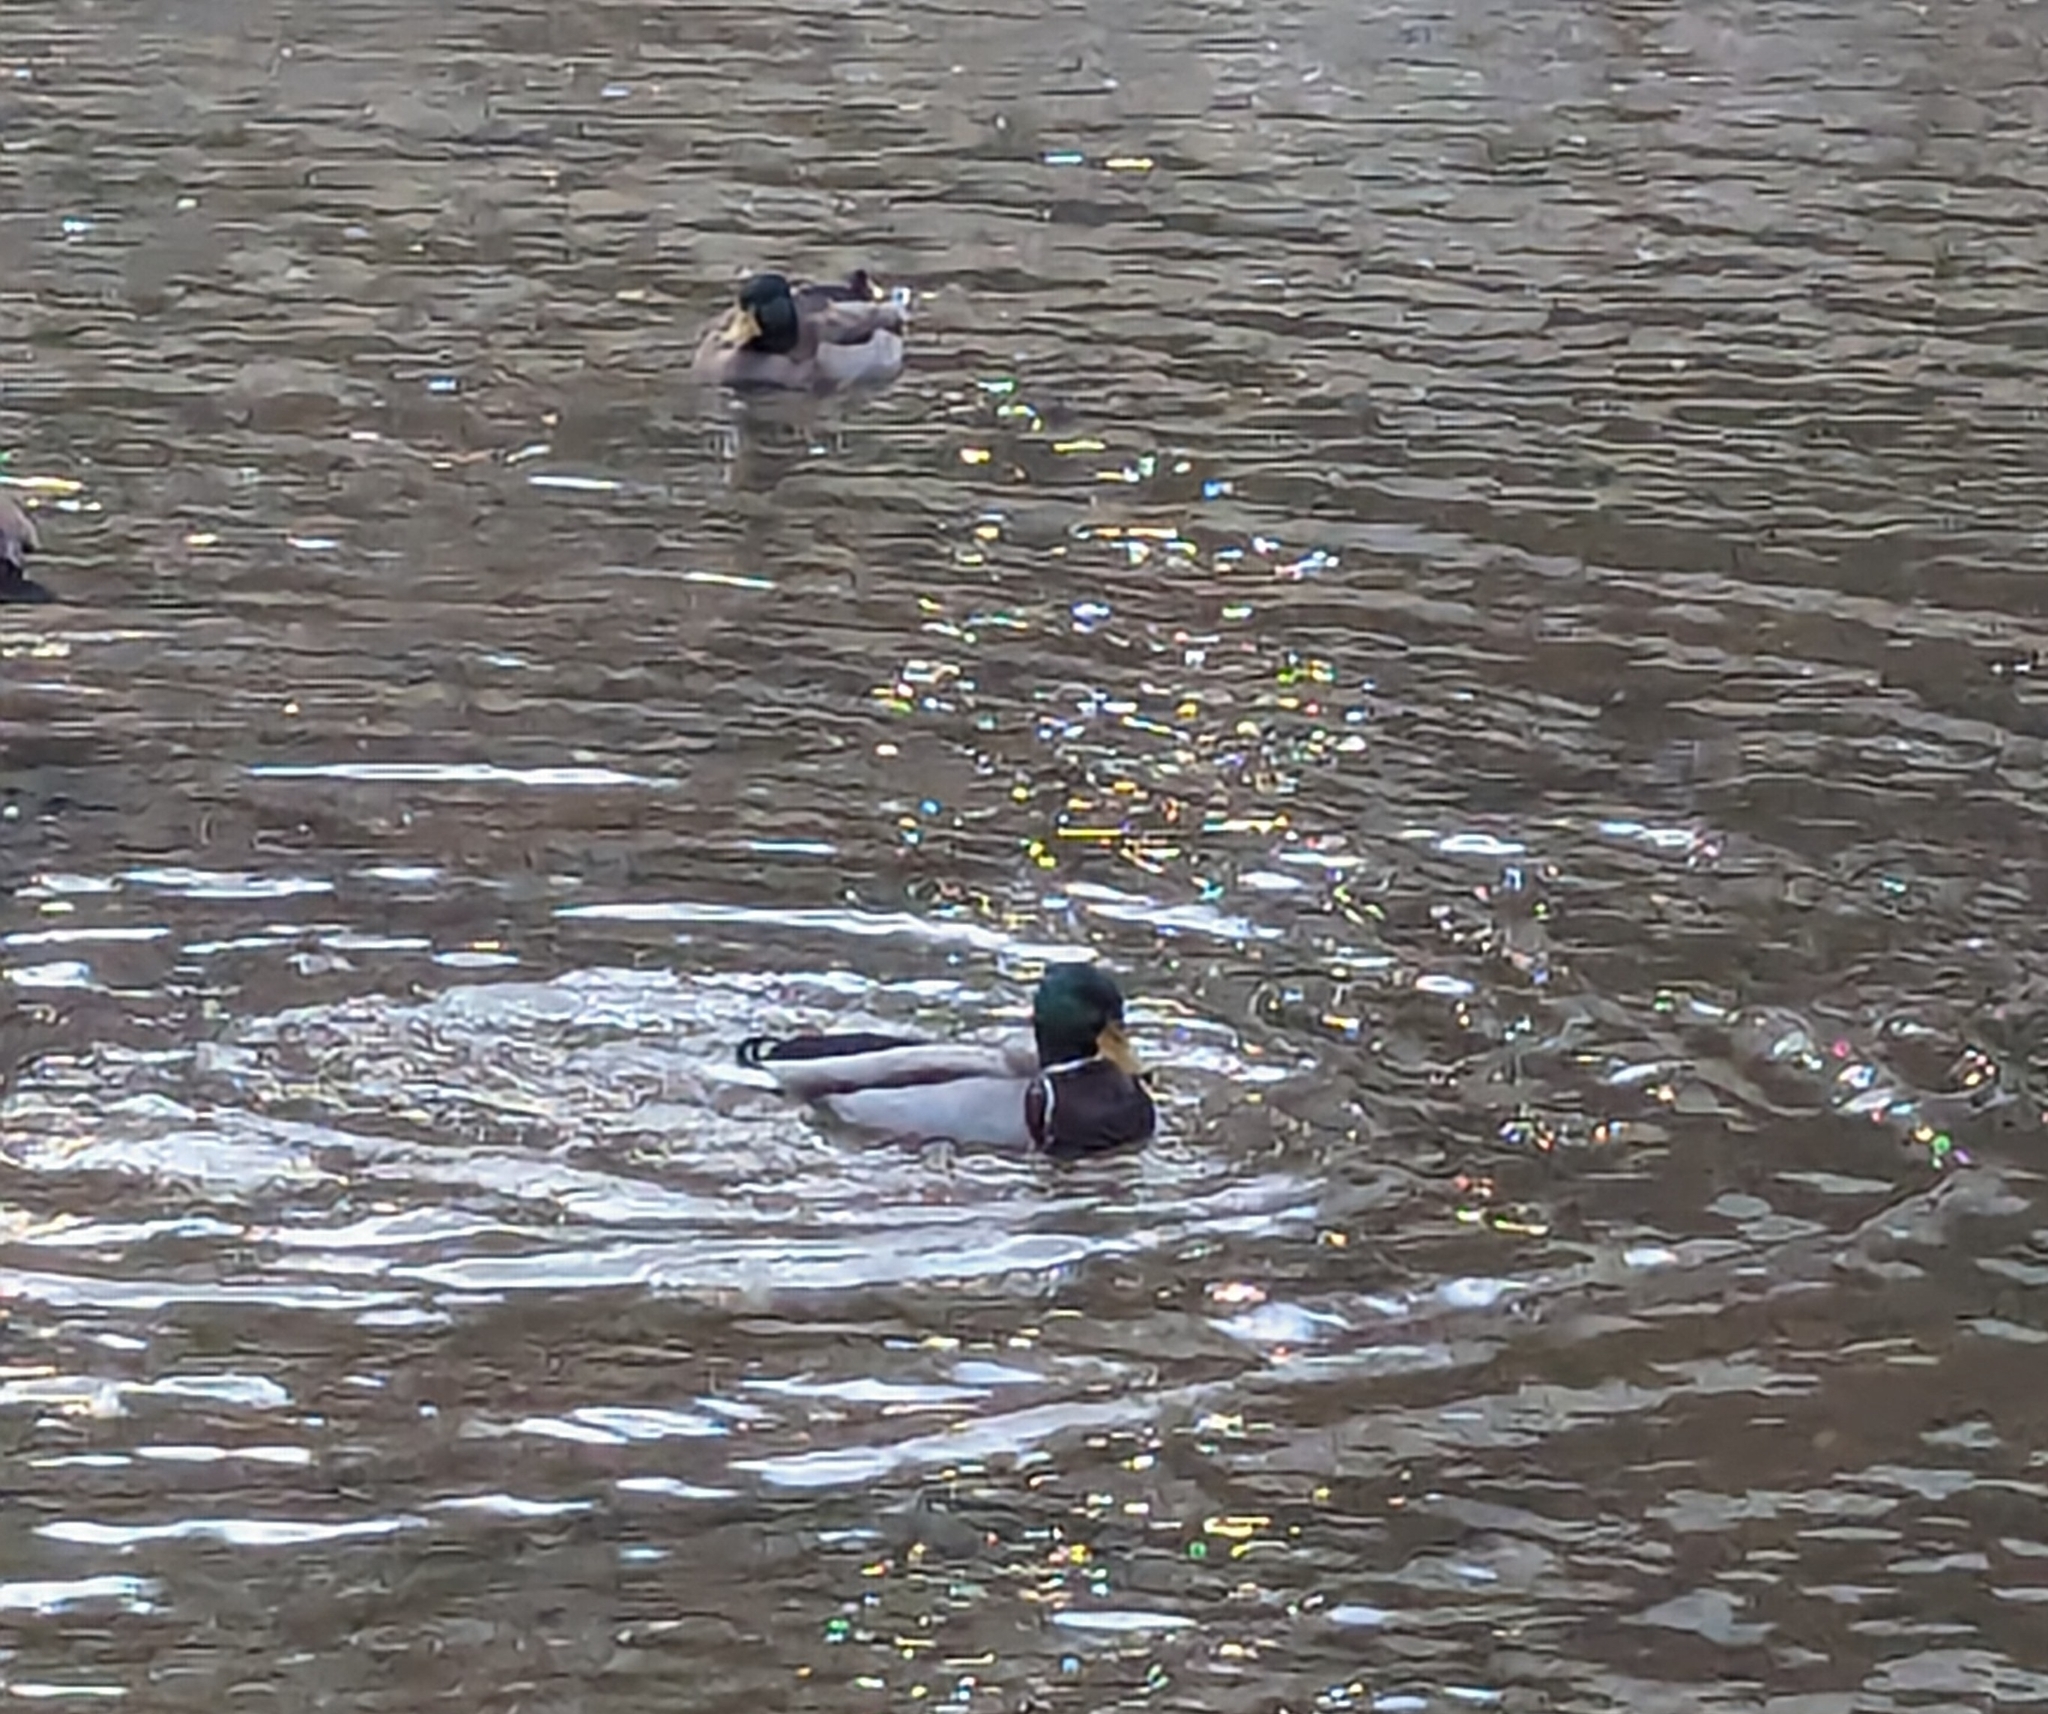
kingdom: Animalia
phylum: Chordata
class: Aves
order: Anseriformes
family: Anatidae
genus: Anas
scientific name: Anas platyrhynchos
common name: Mallard
